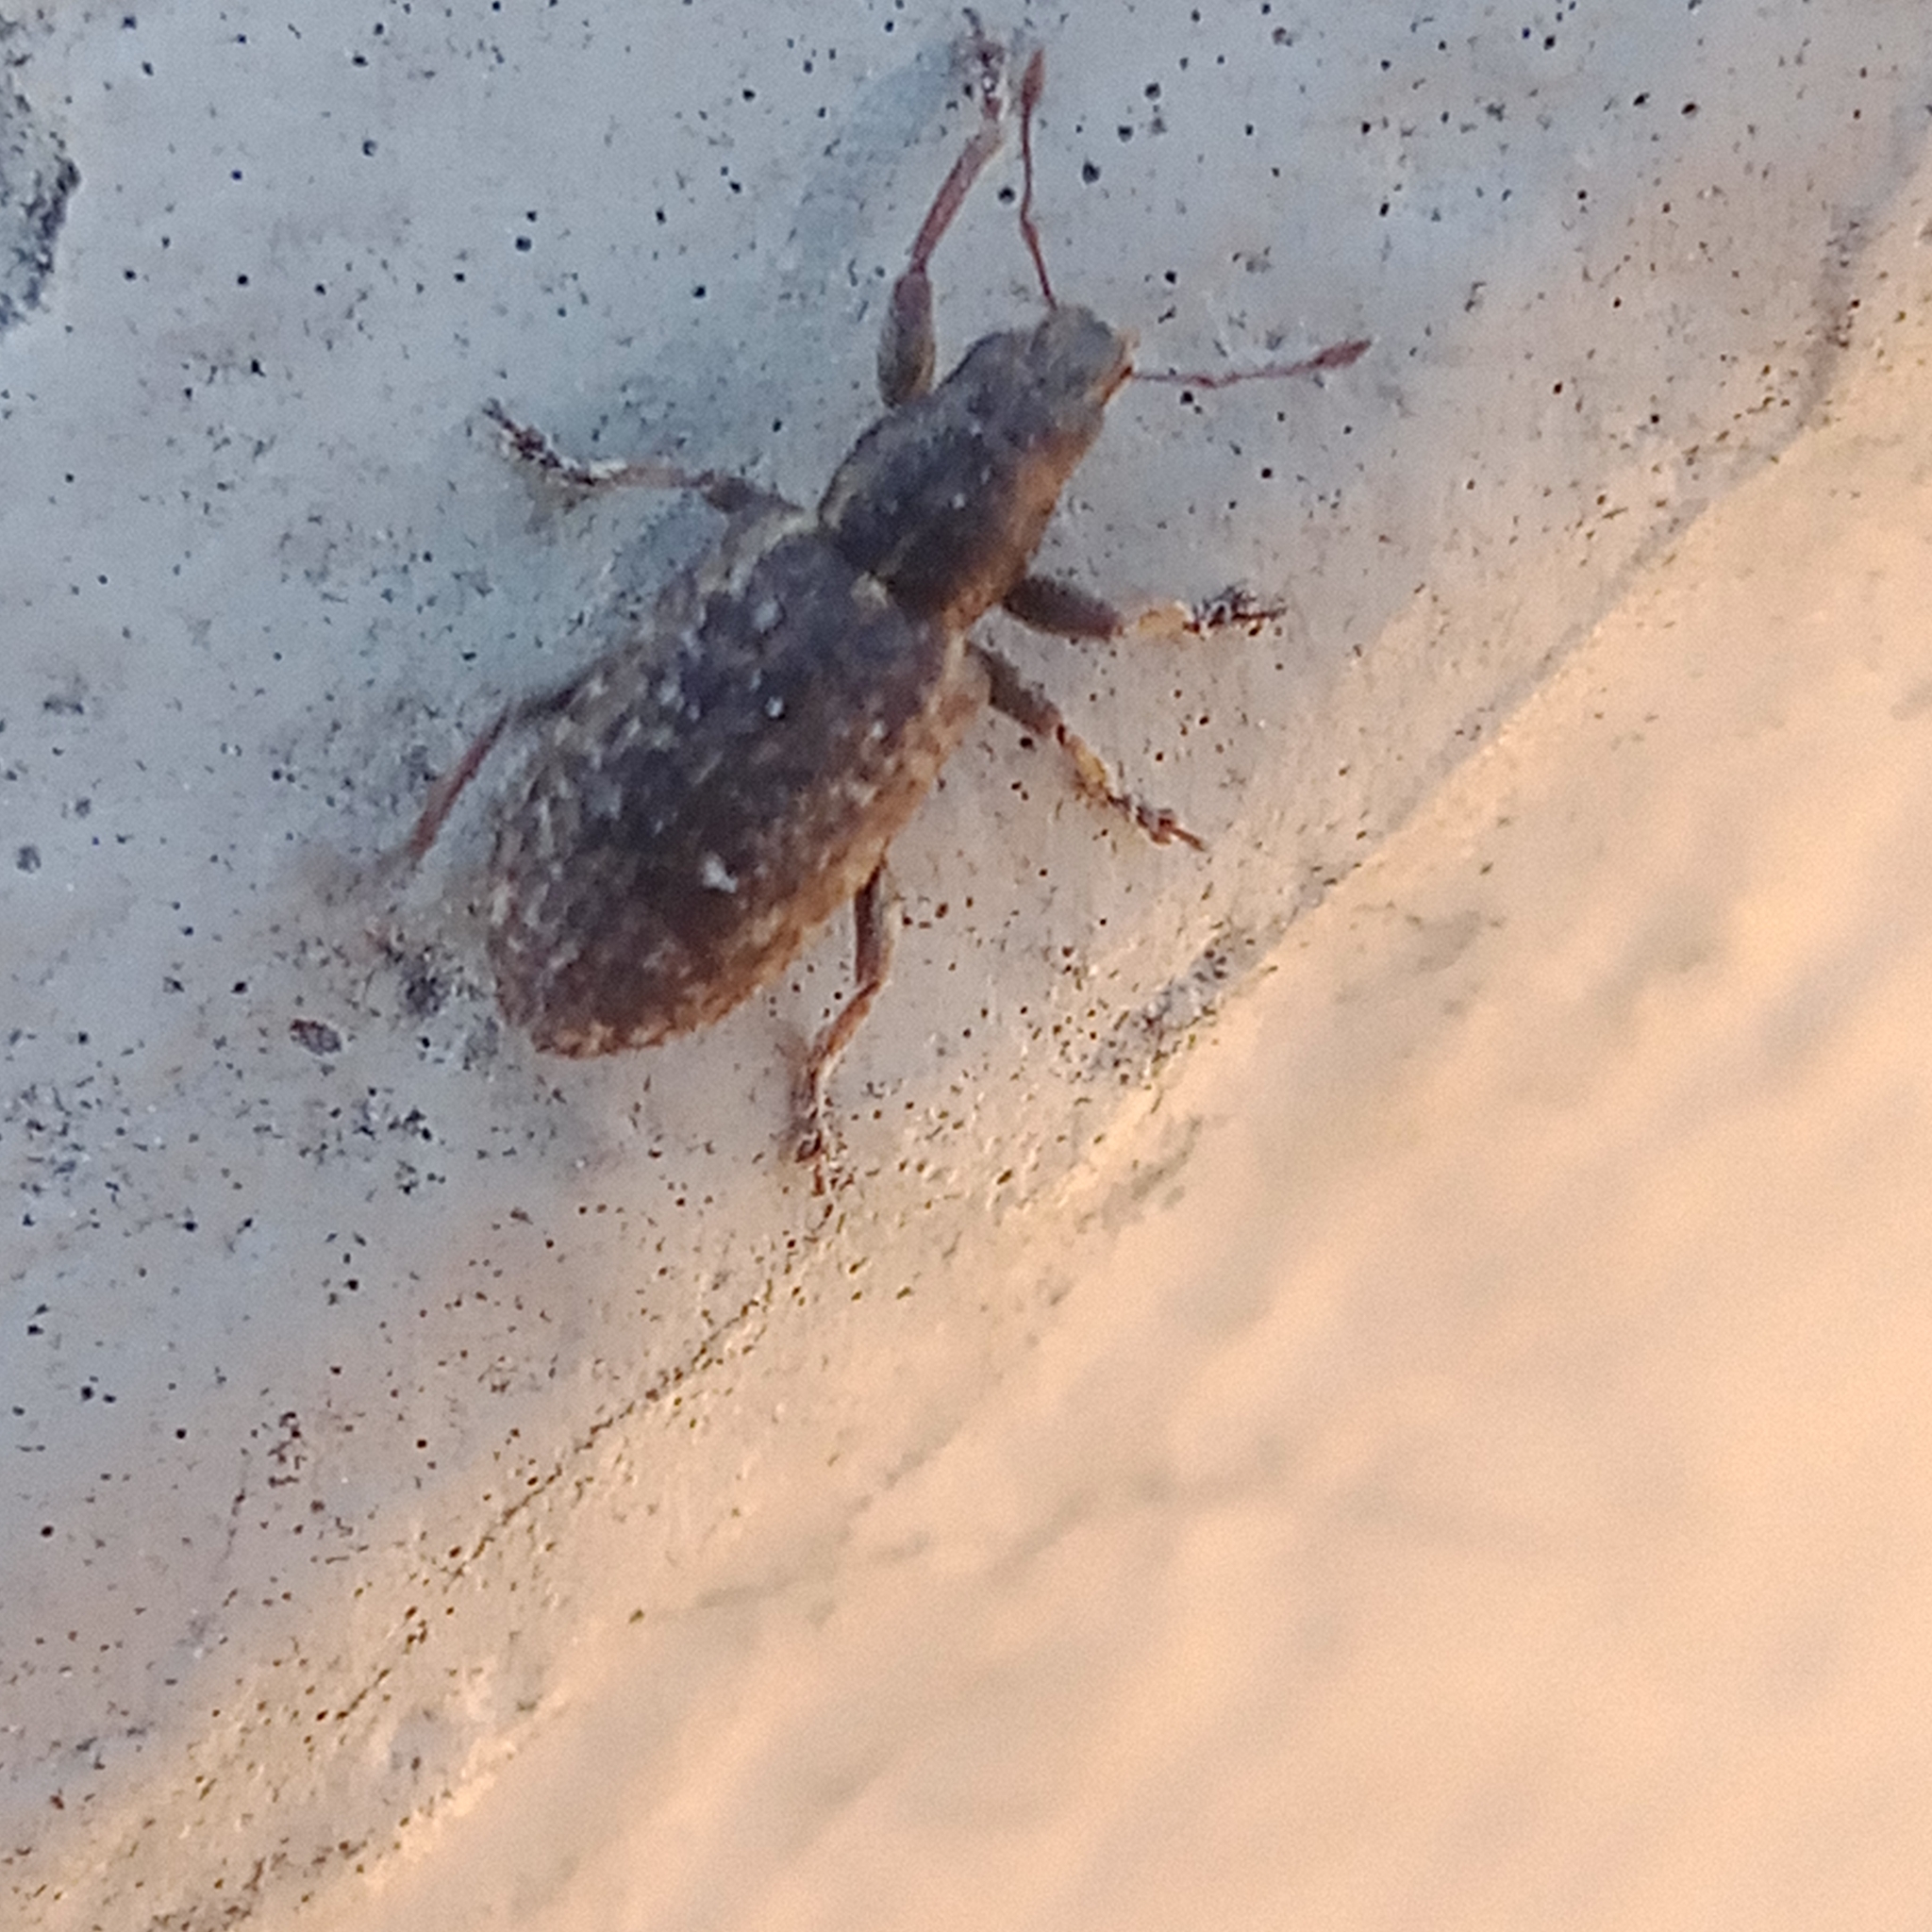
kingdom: Animalia
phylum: Arthropoda
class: Insecta
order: Coleoptera
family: Curculionidae
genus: Sitona
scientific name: Sitona cylindricollis
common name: Weevil
